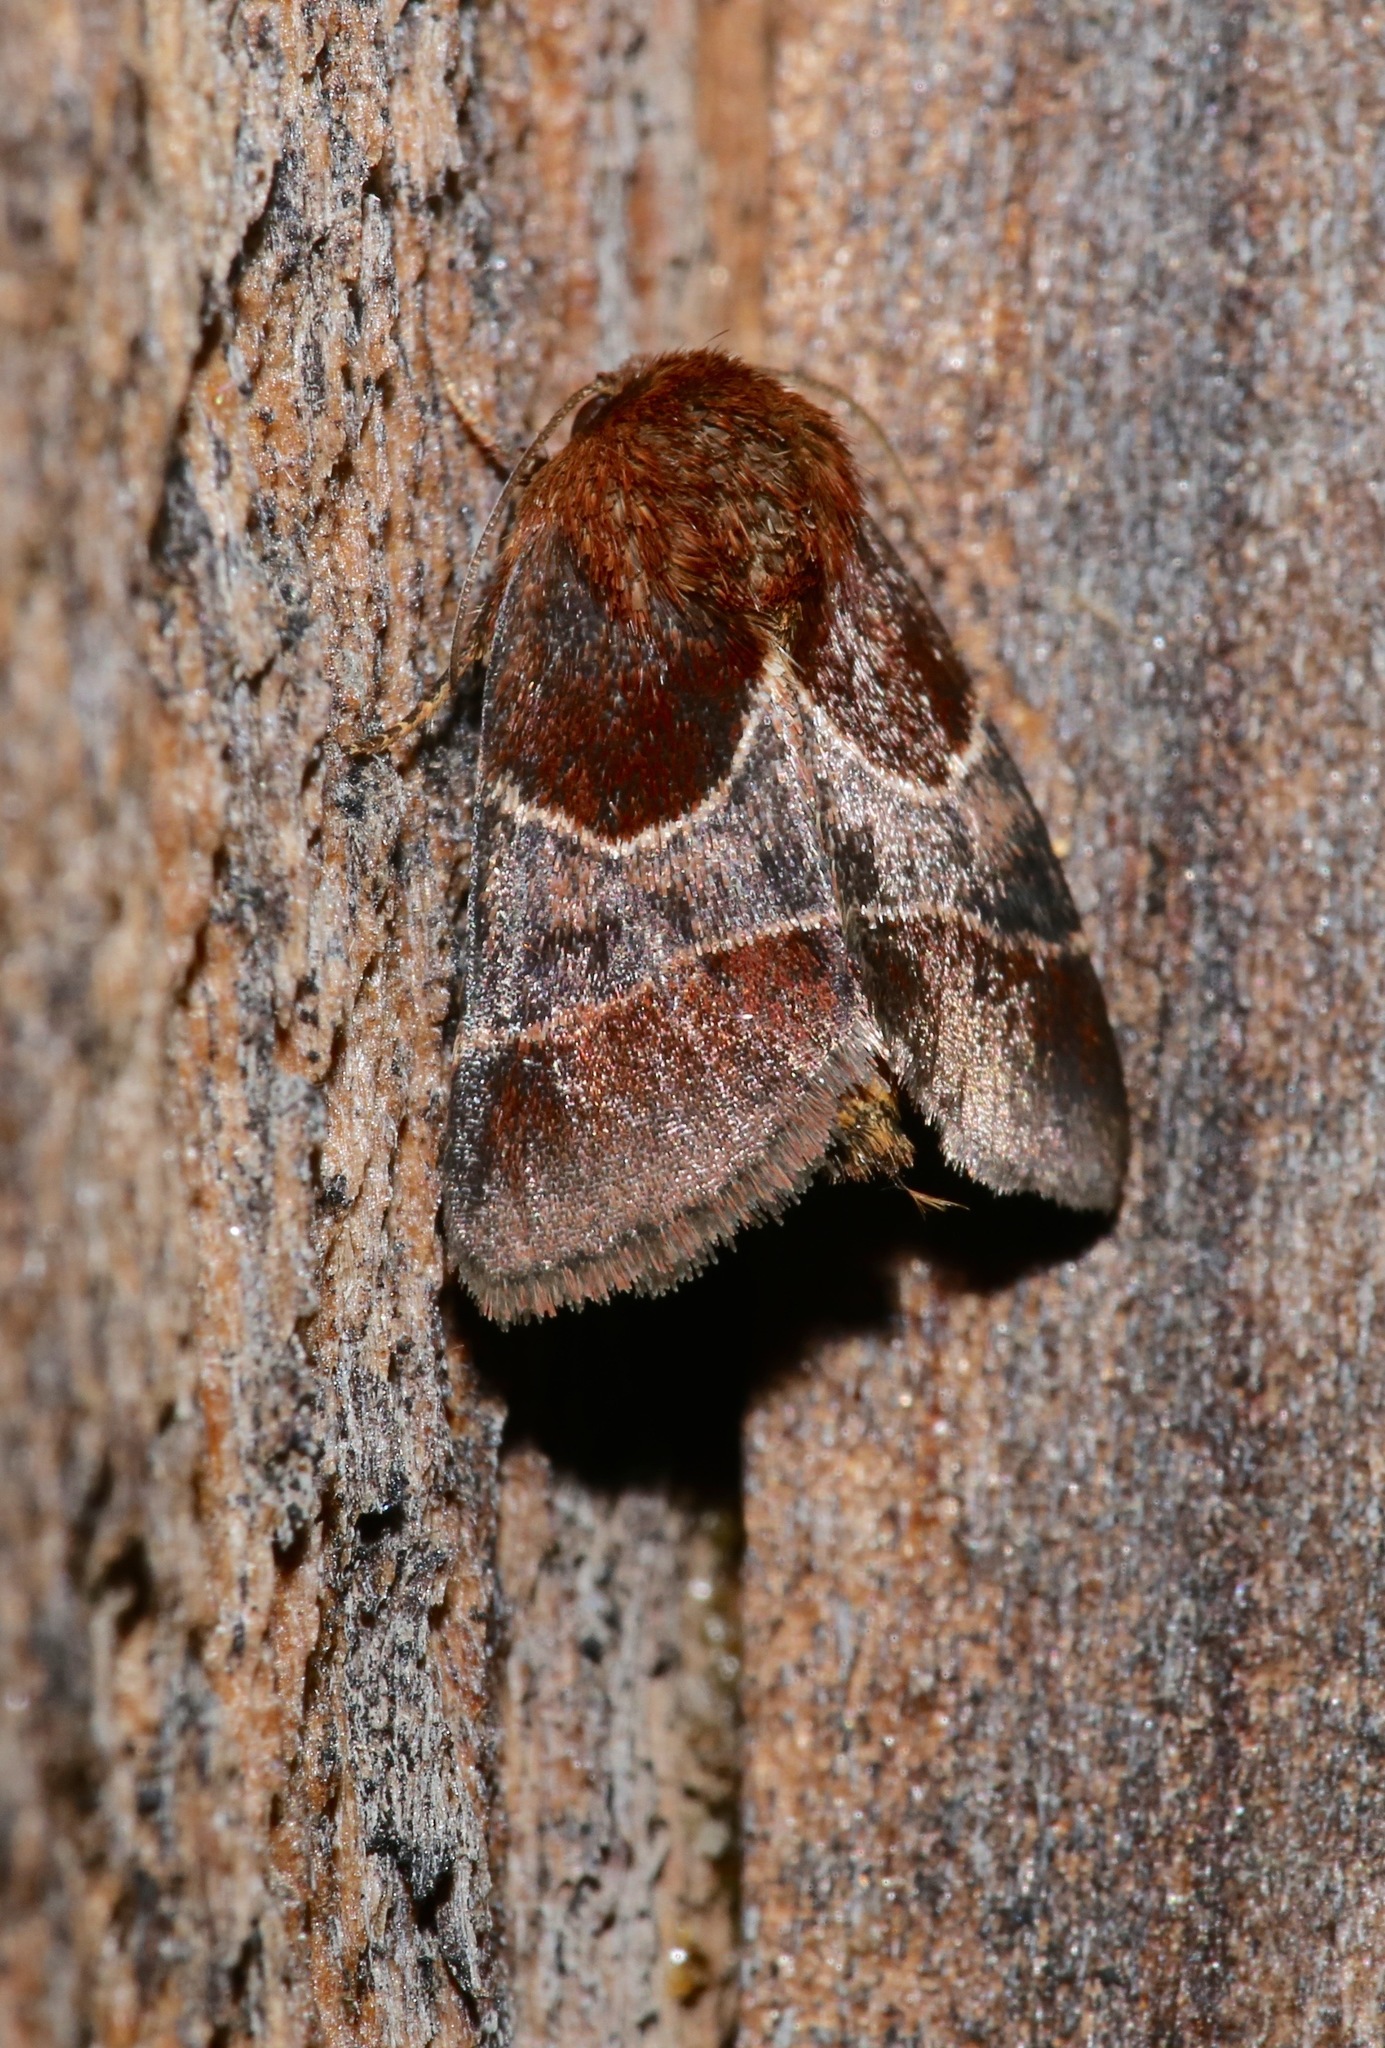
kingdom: Animalia
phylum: Arthropoda
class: Insecta
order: Lepidoptera
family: Noctuidae
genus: Schinia
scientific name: Schinia arcigera
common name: Arcigera flower moth
